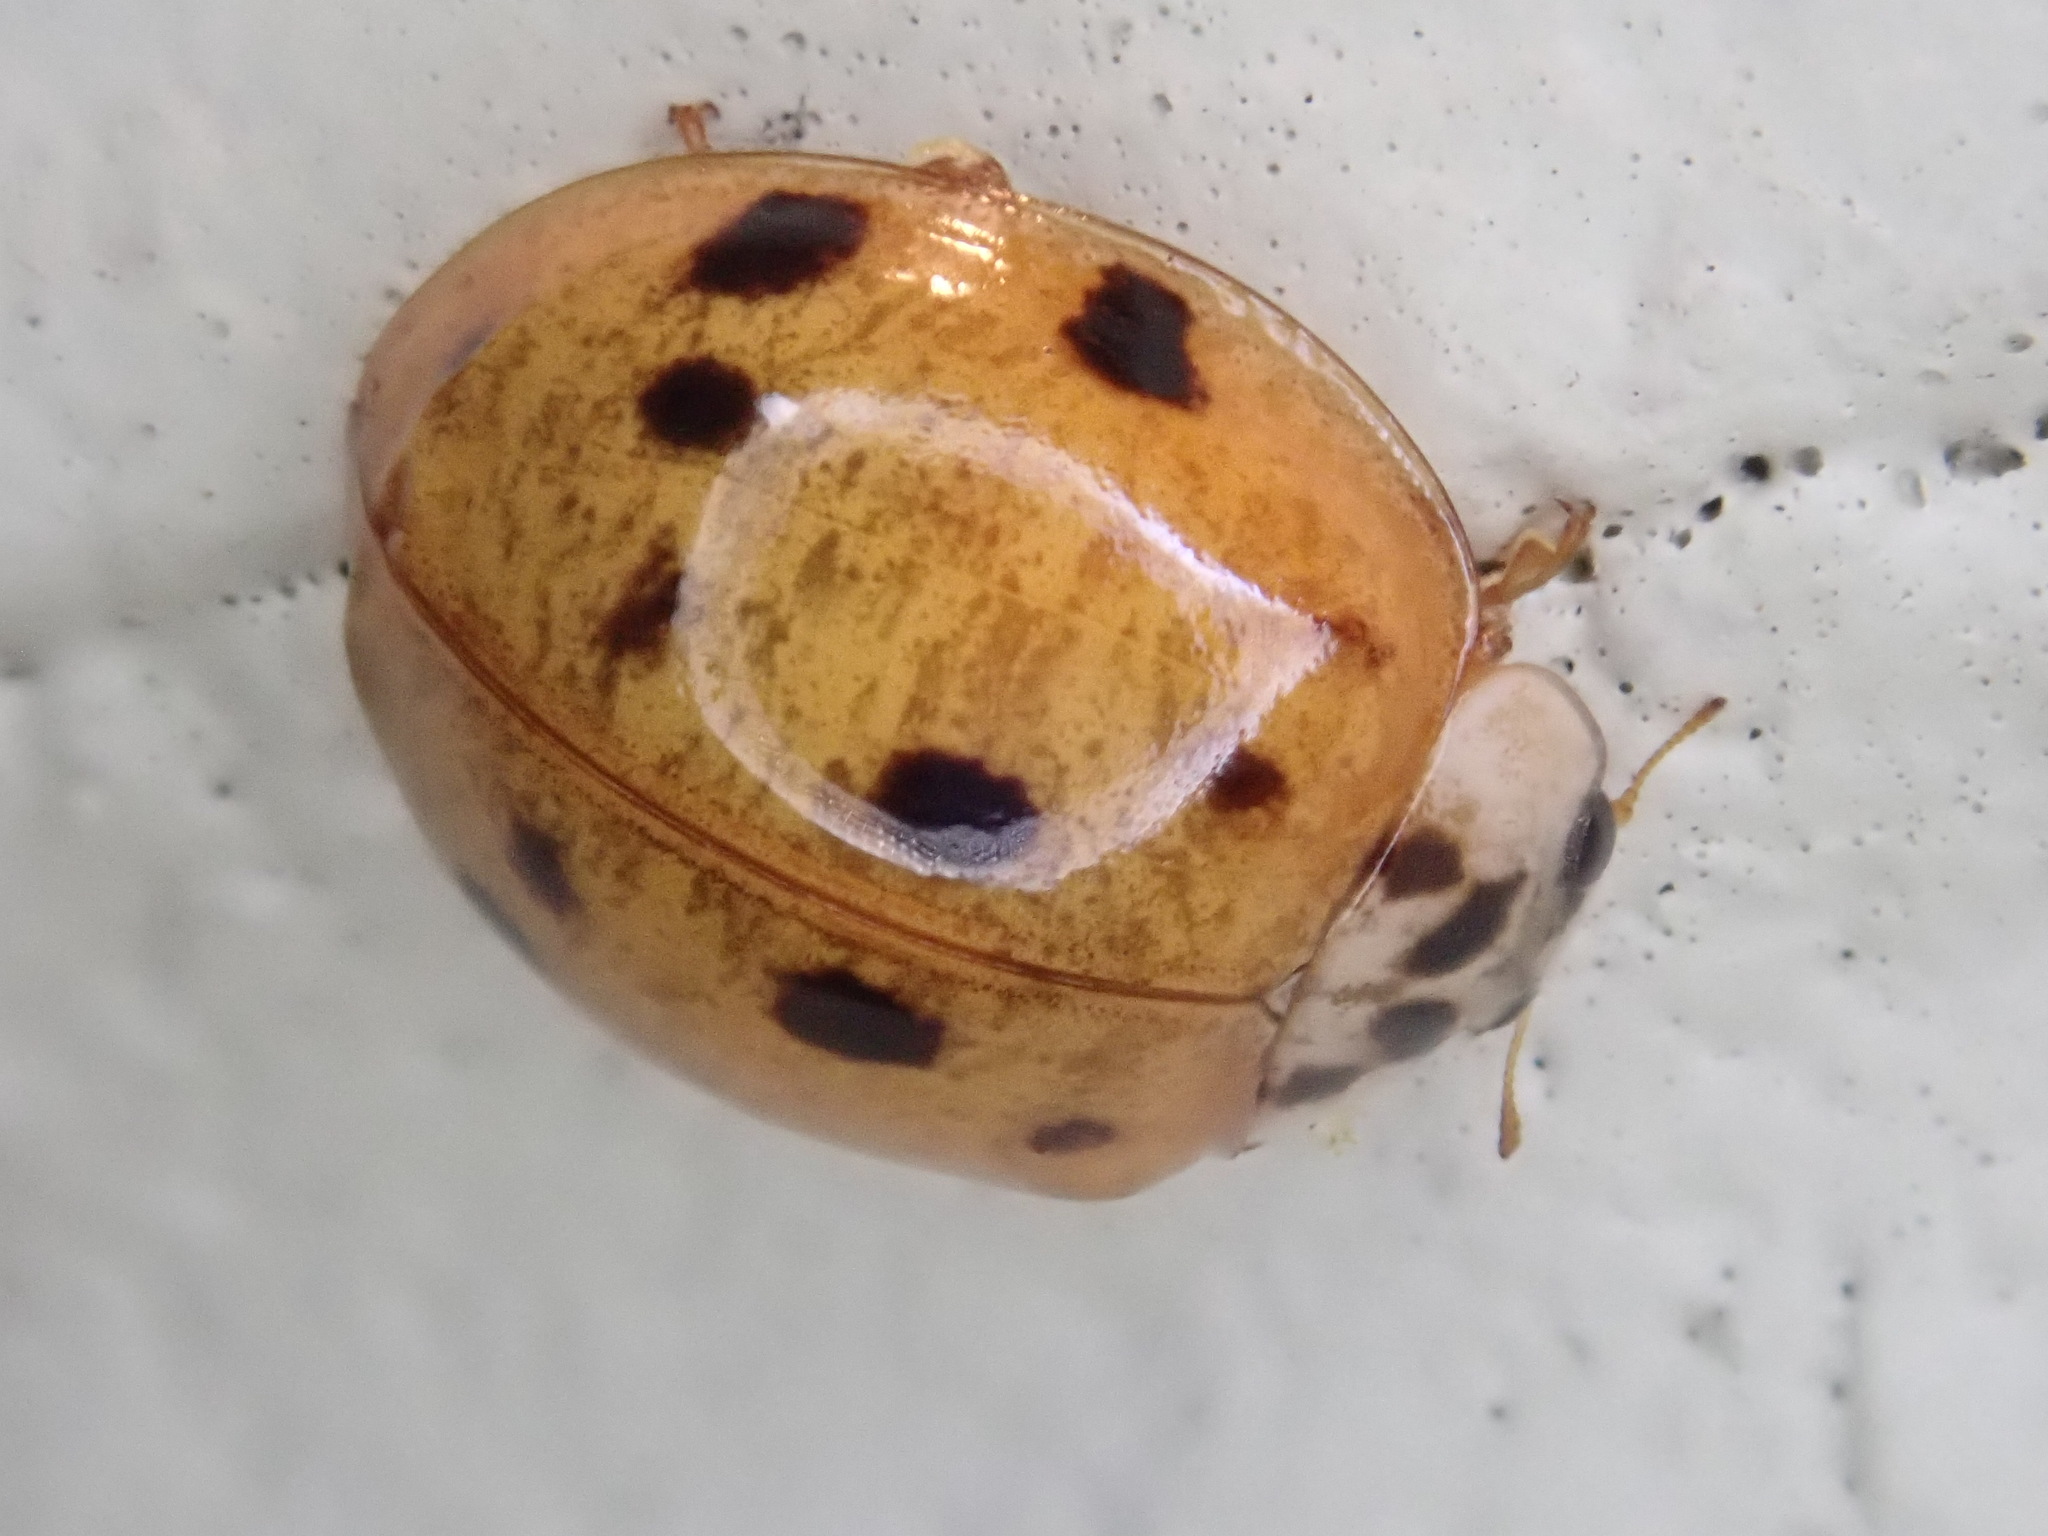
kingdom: Animalia
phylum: Arthropoda
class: Insecta
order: Coleoptera
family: Coccinellidae
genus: Harmonia
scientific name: Harmonia axyridis
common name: Harlequin ladybird
